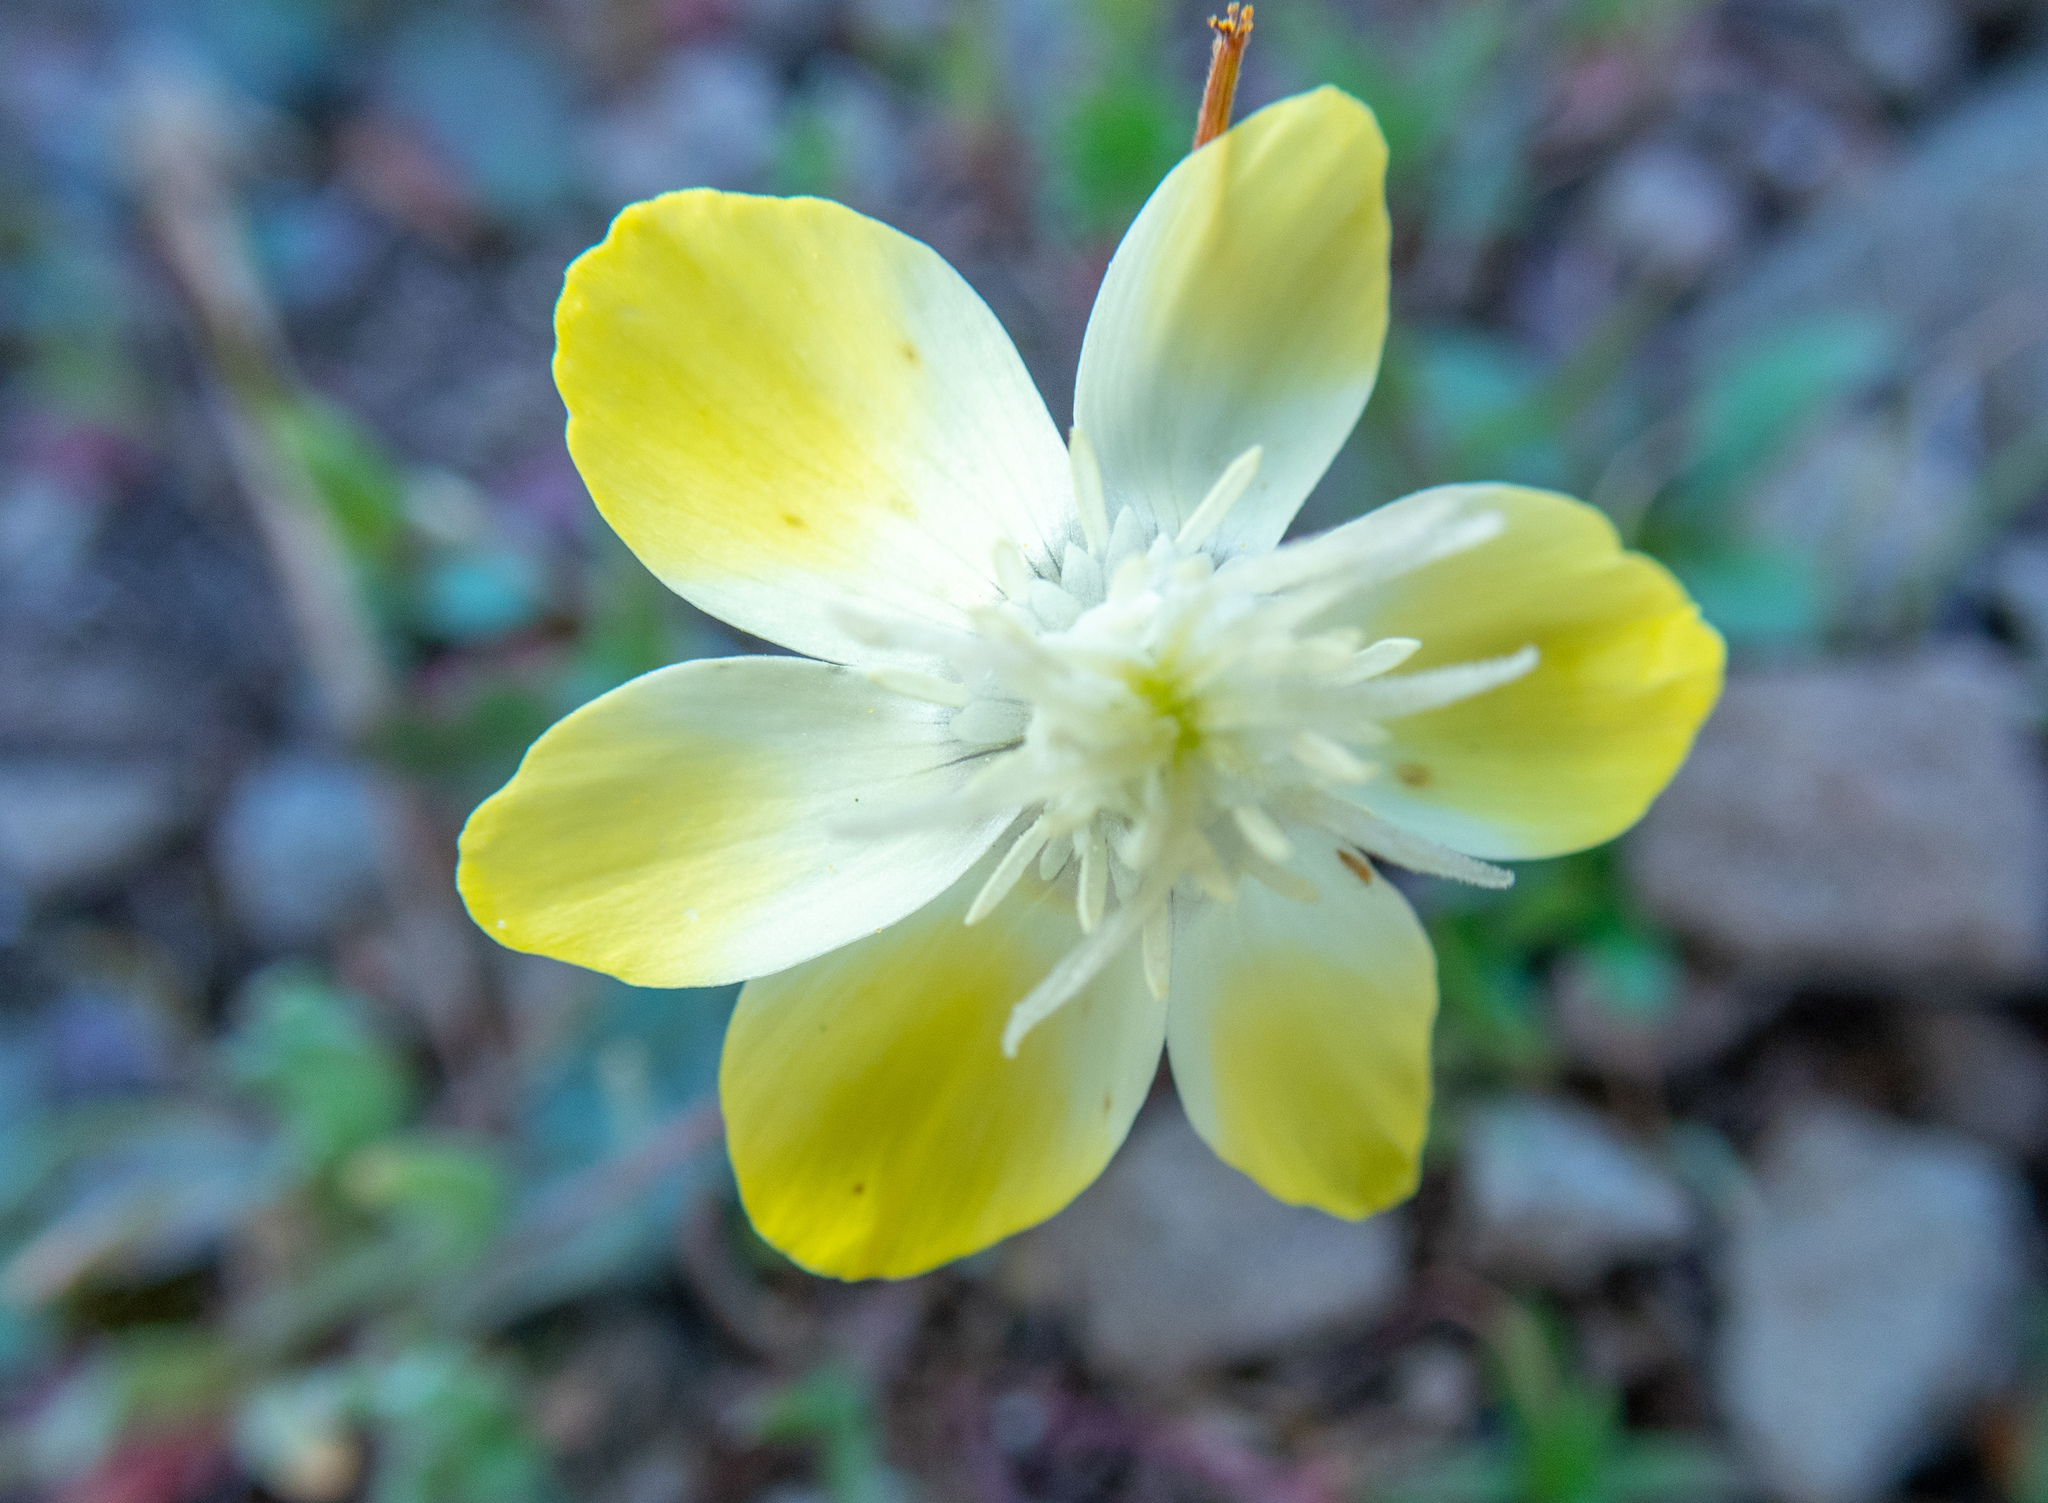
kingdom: Plantae
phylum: Tracheophyta
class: Magnoliopsida
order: Ranunculales
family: Papaveraceae
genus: Platystemon
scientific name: Platystemon californicus
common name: Cream-cups
